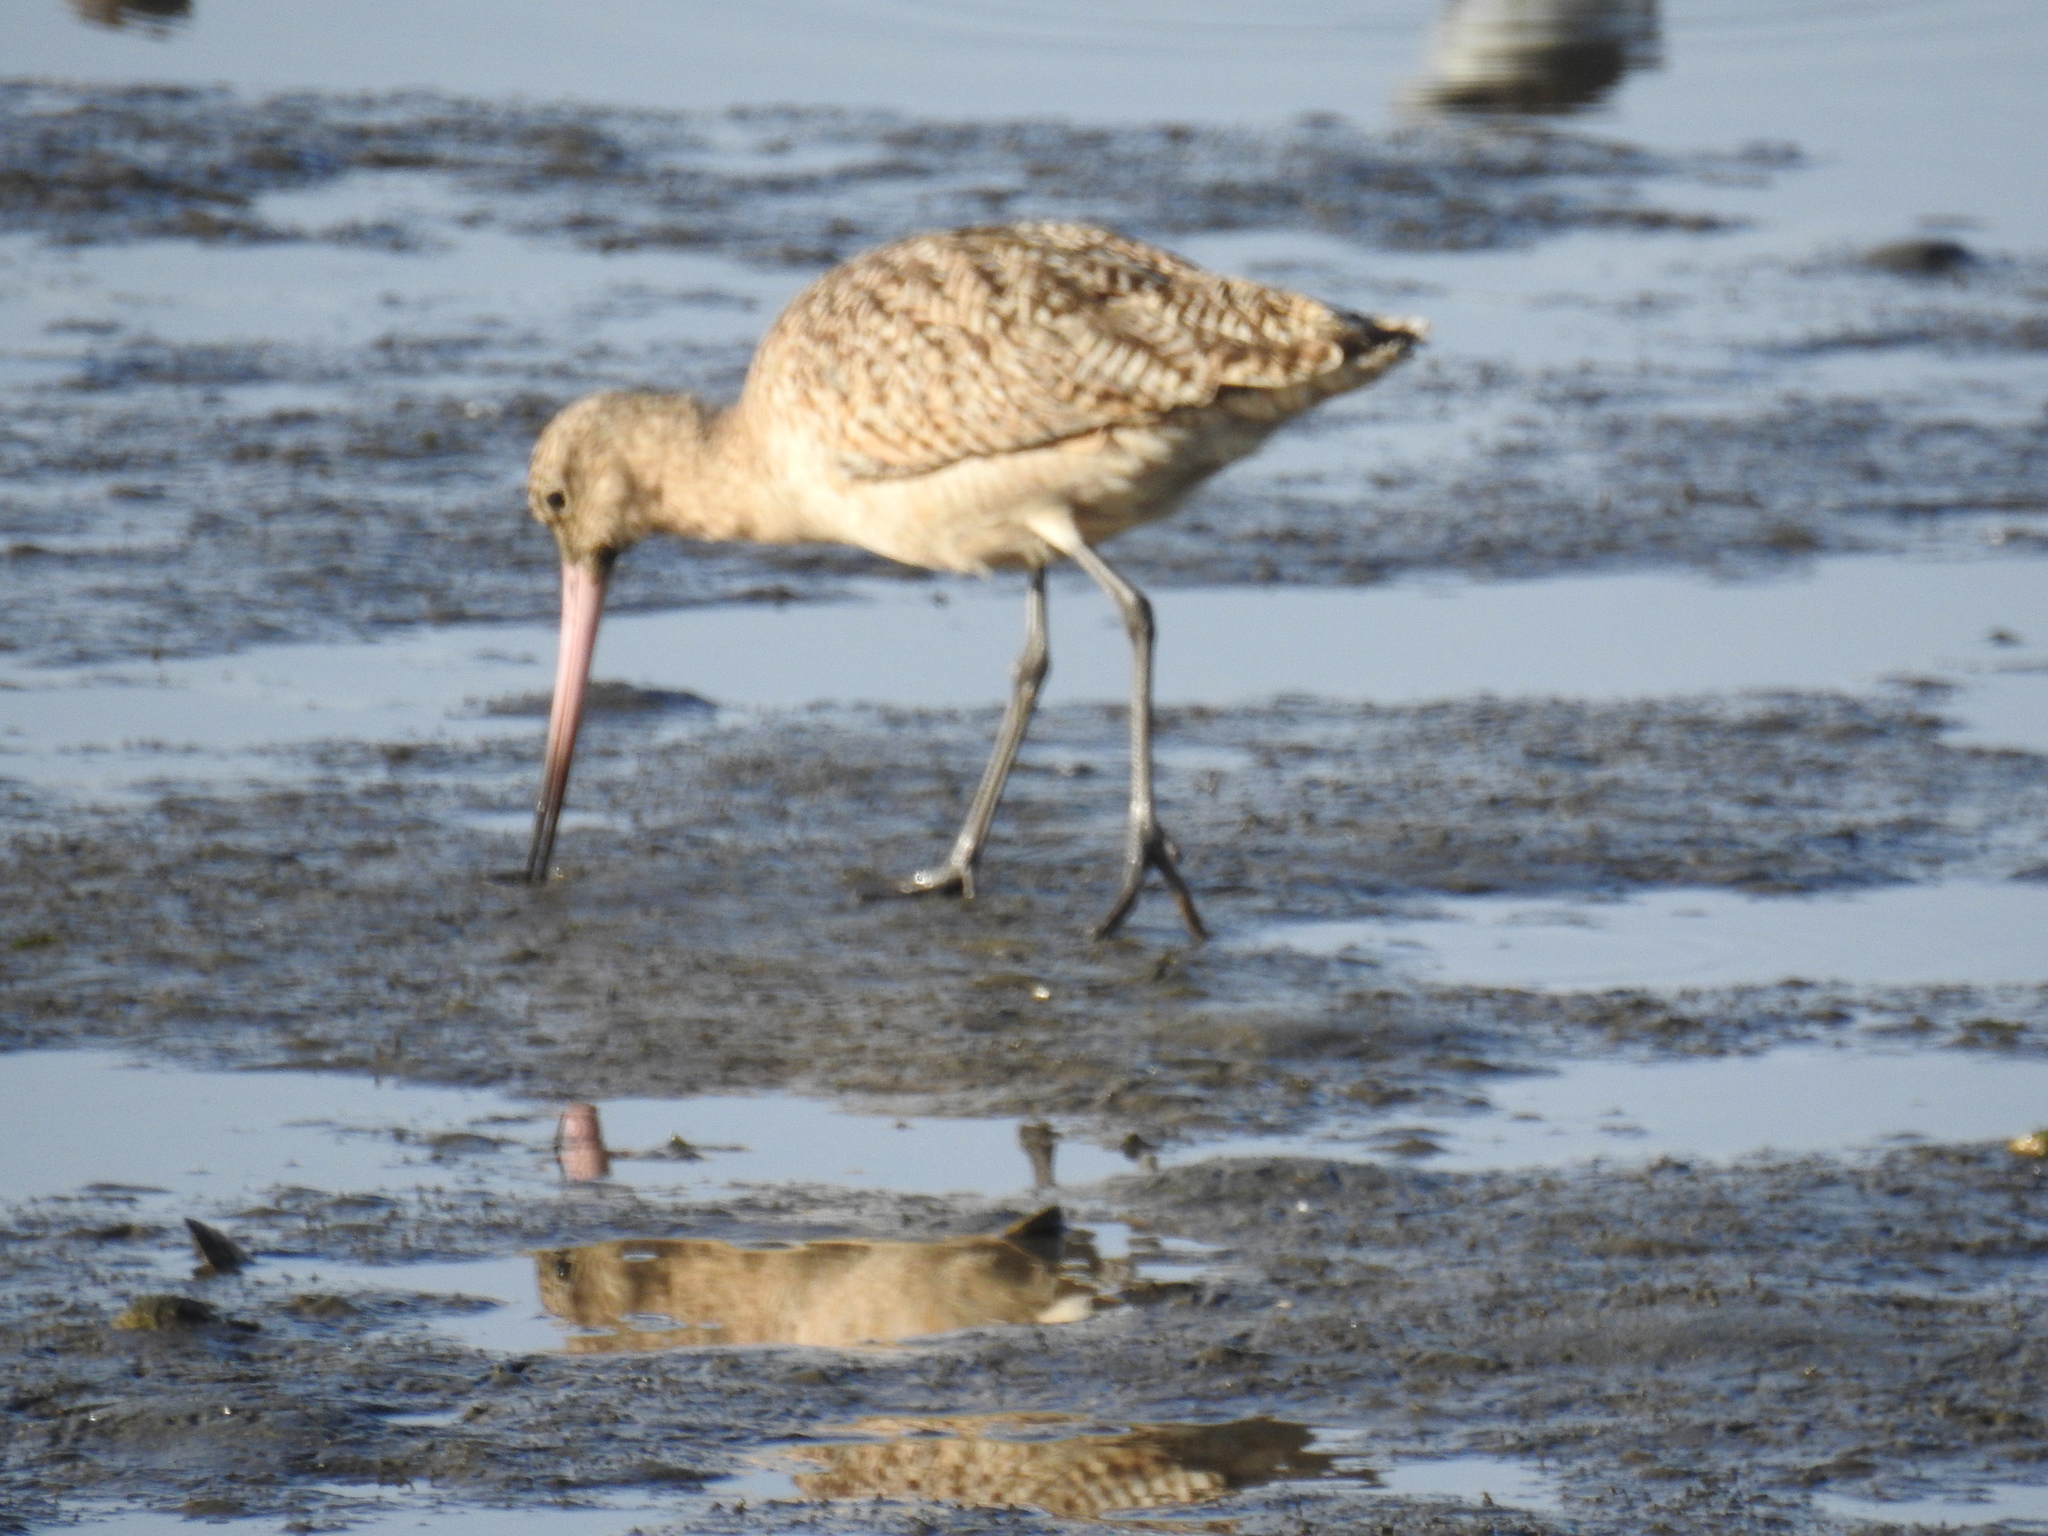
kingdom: Animalia
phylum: Chordata
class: Aves
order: Charadriiformes
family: Scolopacidae
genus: Limosa
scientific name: Limosa fedoa
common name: Marbled godwit
